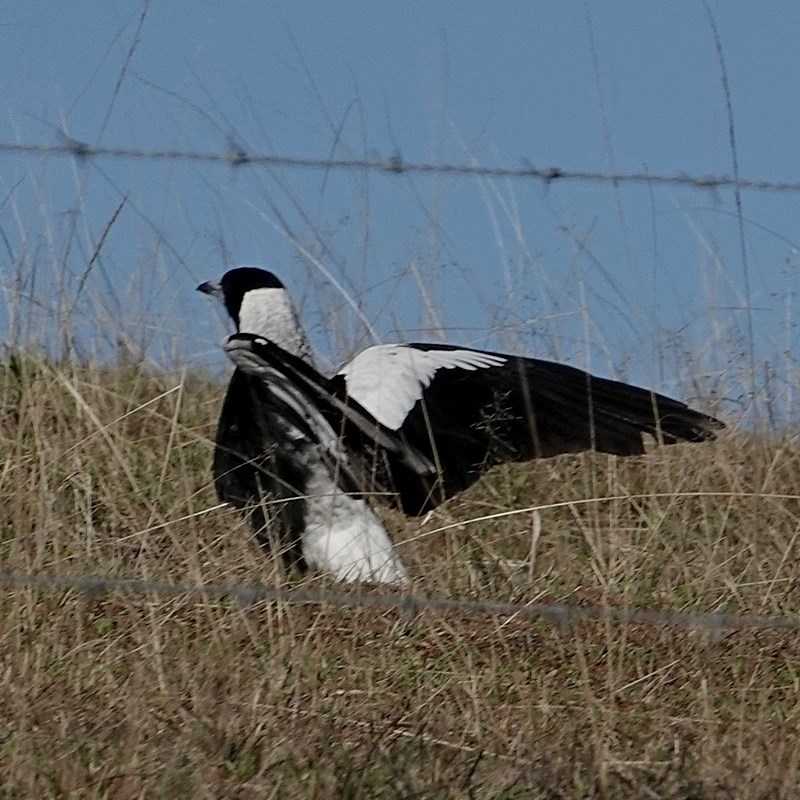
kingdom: Animalia
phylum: Chordata
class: Aves
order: Passeriformes
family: Cracticidae
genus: Gymnorhina
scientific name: Gymnorhina tibicen
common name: Australian magpie
